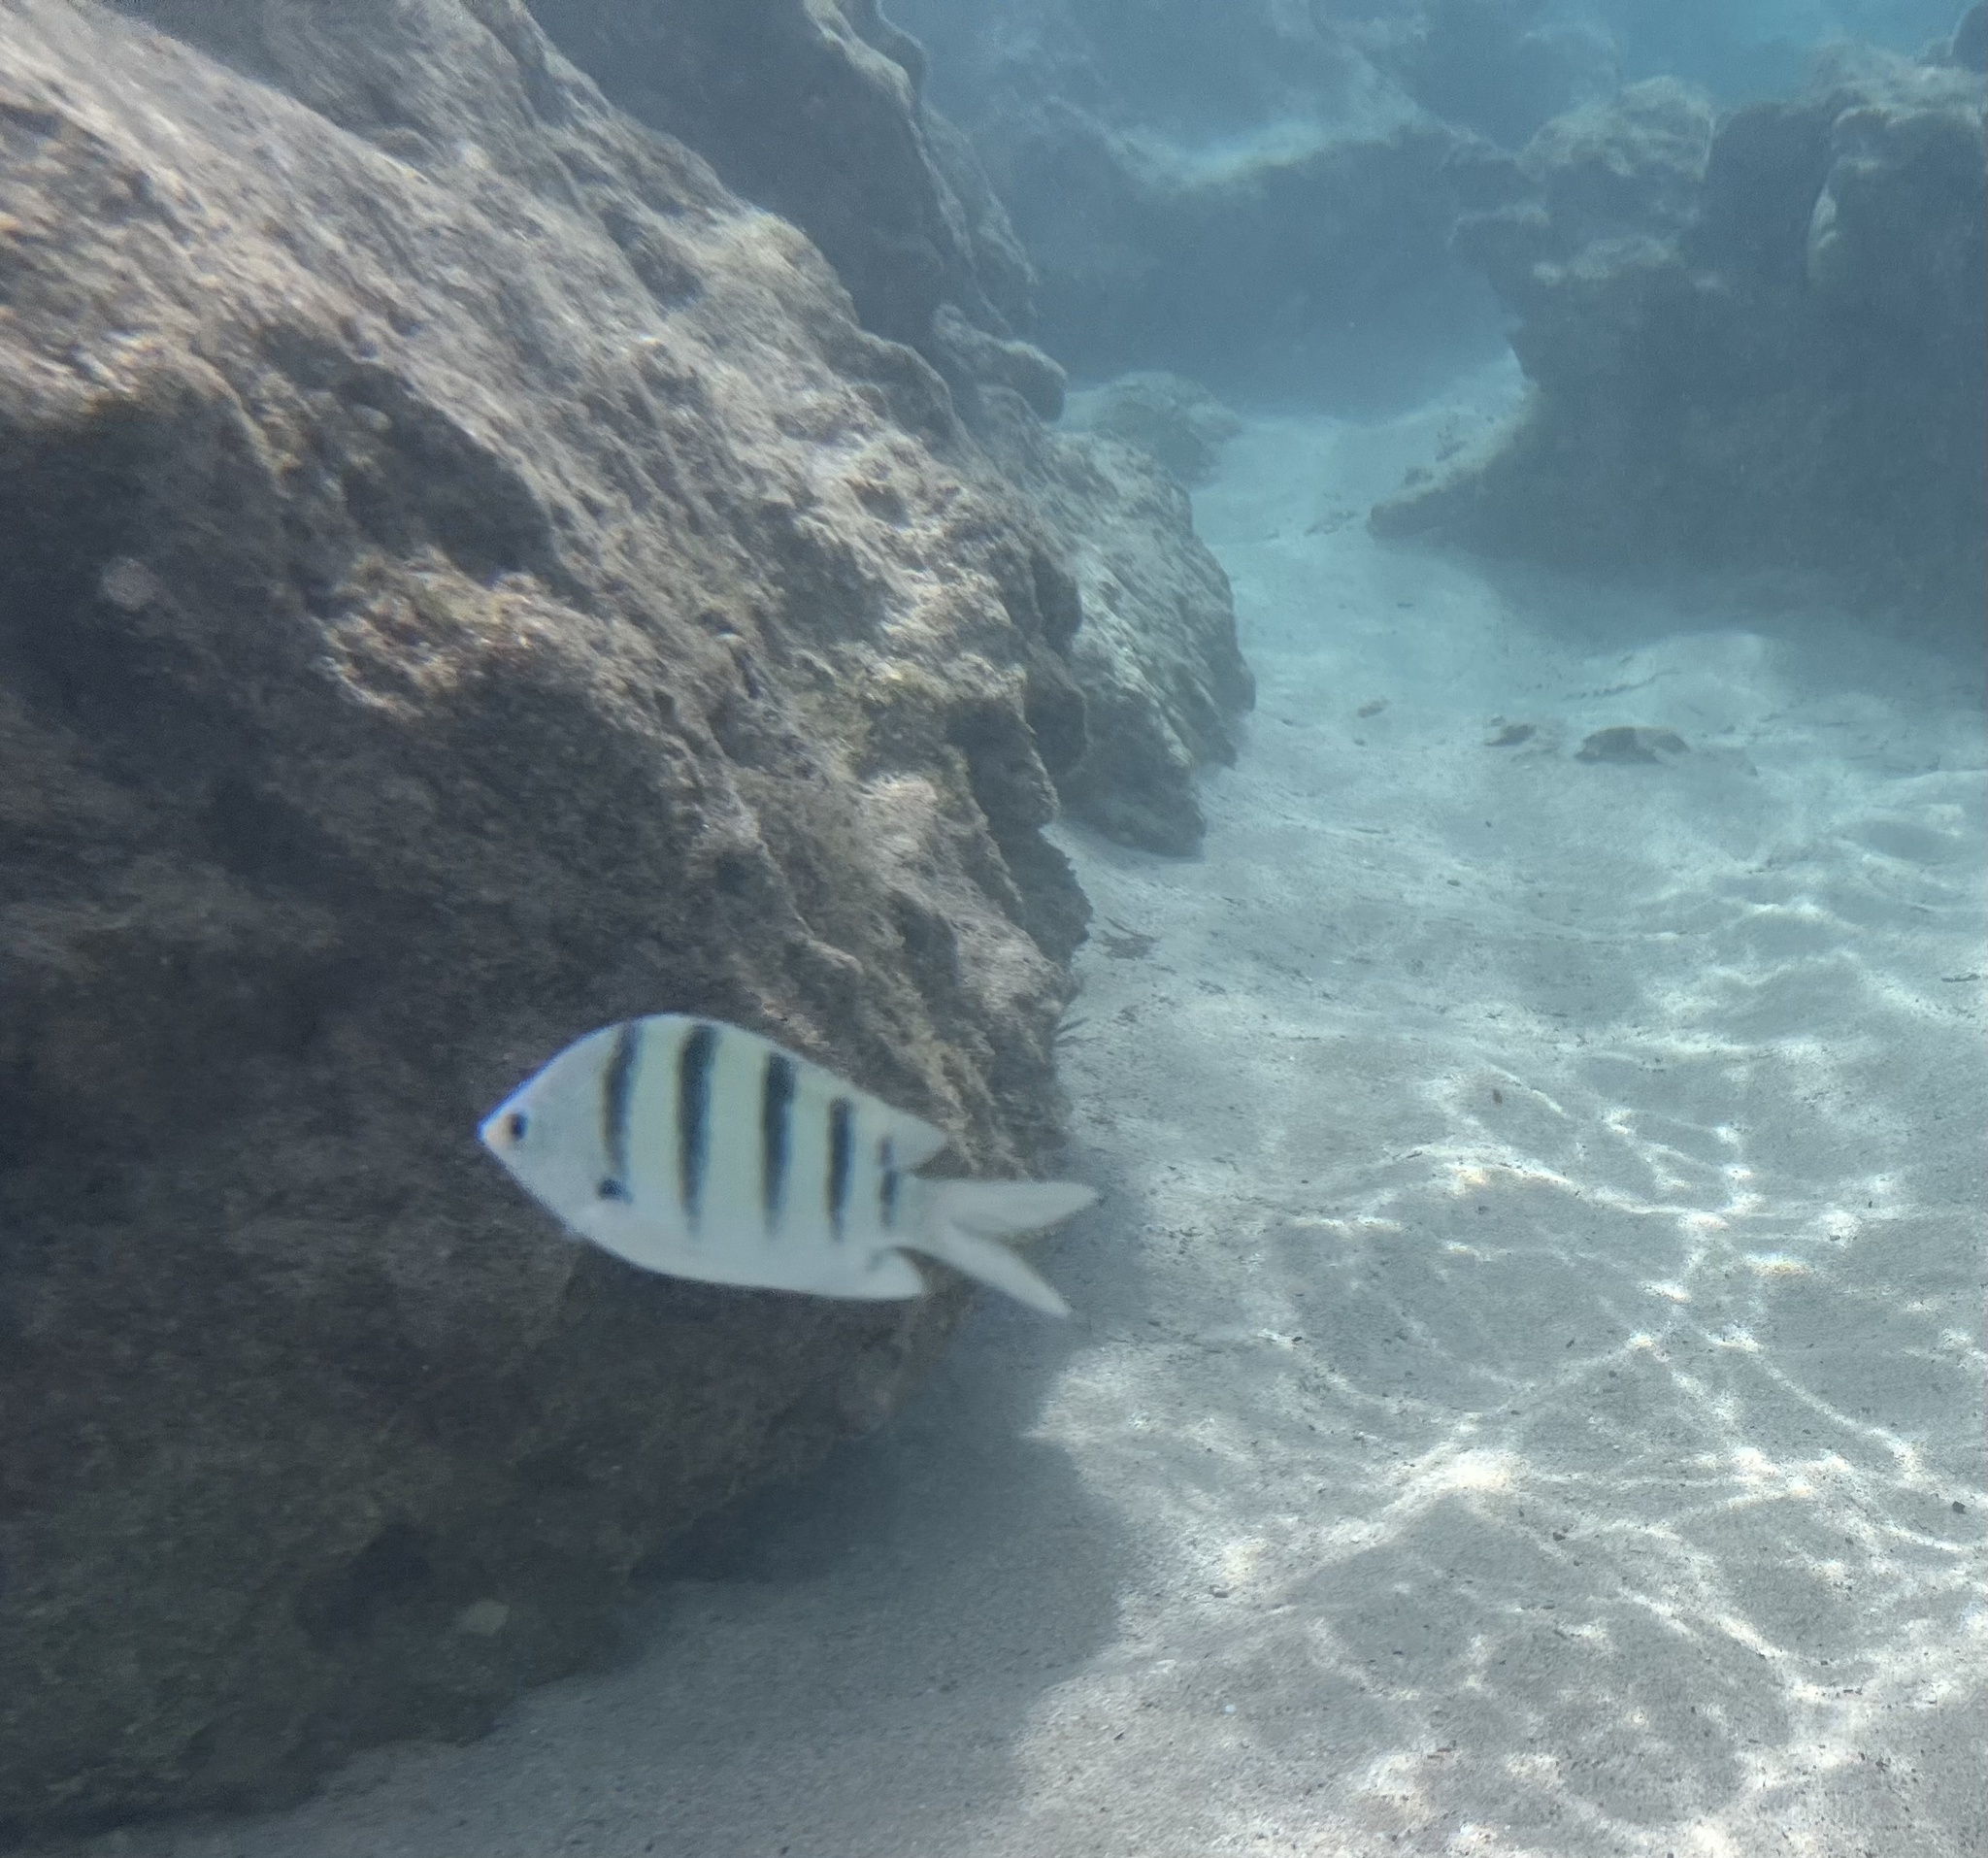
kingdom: Animalia
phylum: Chordata
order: Perciformes
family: Pomacentridae
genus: Abudefduf
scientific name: Abudefduf abdominalis
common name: Green damselfish
